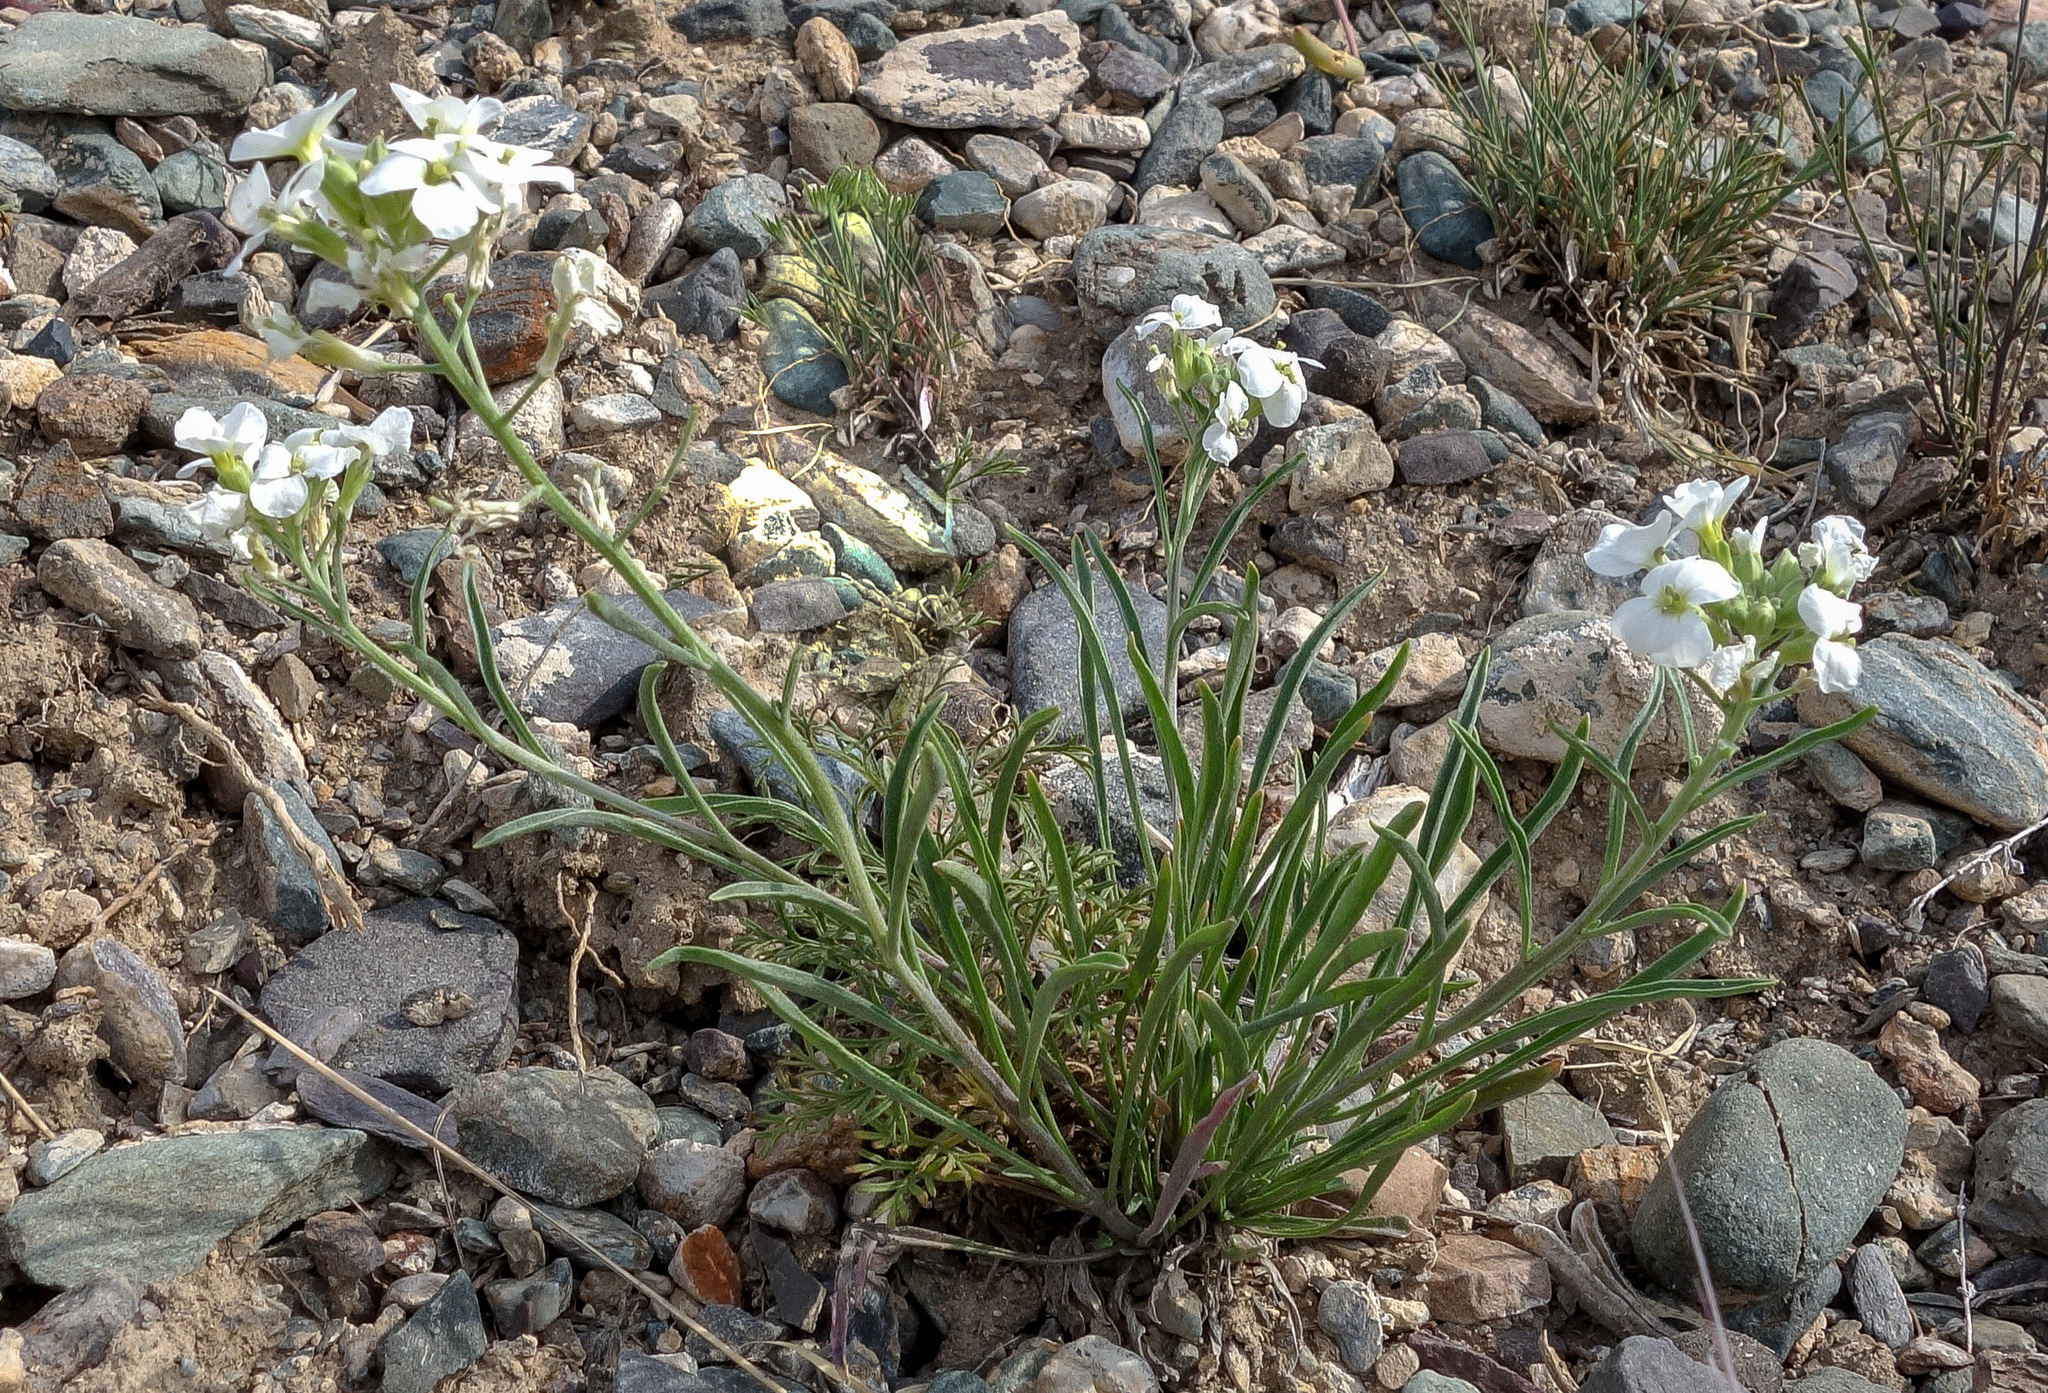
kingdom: Plantae
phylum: Tracheophyta
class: Magnoliopsida
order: Brassicales
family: Brassicaceae
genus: Erysimum
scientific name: Erysimum inense
